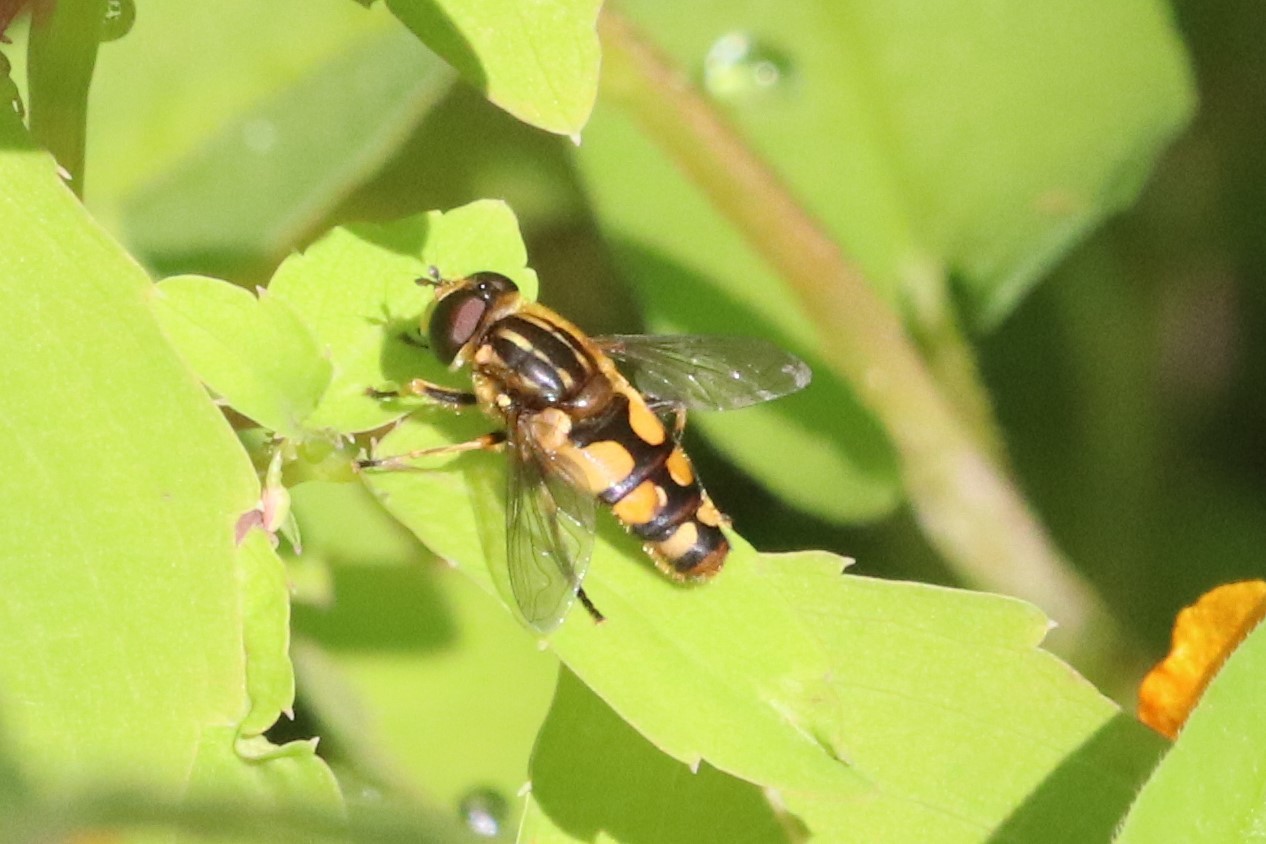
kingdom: Animalia
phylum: Arthropoda
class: Insecta
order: Diptera
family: Syrphidae
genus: Helophilus
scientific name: Helophilus obscurus
